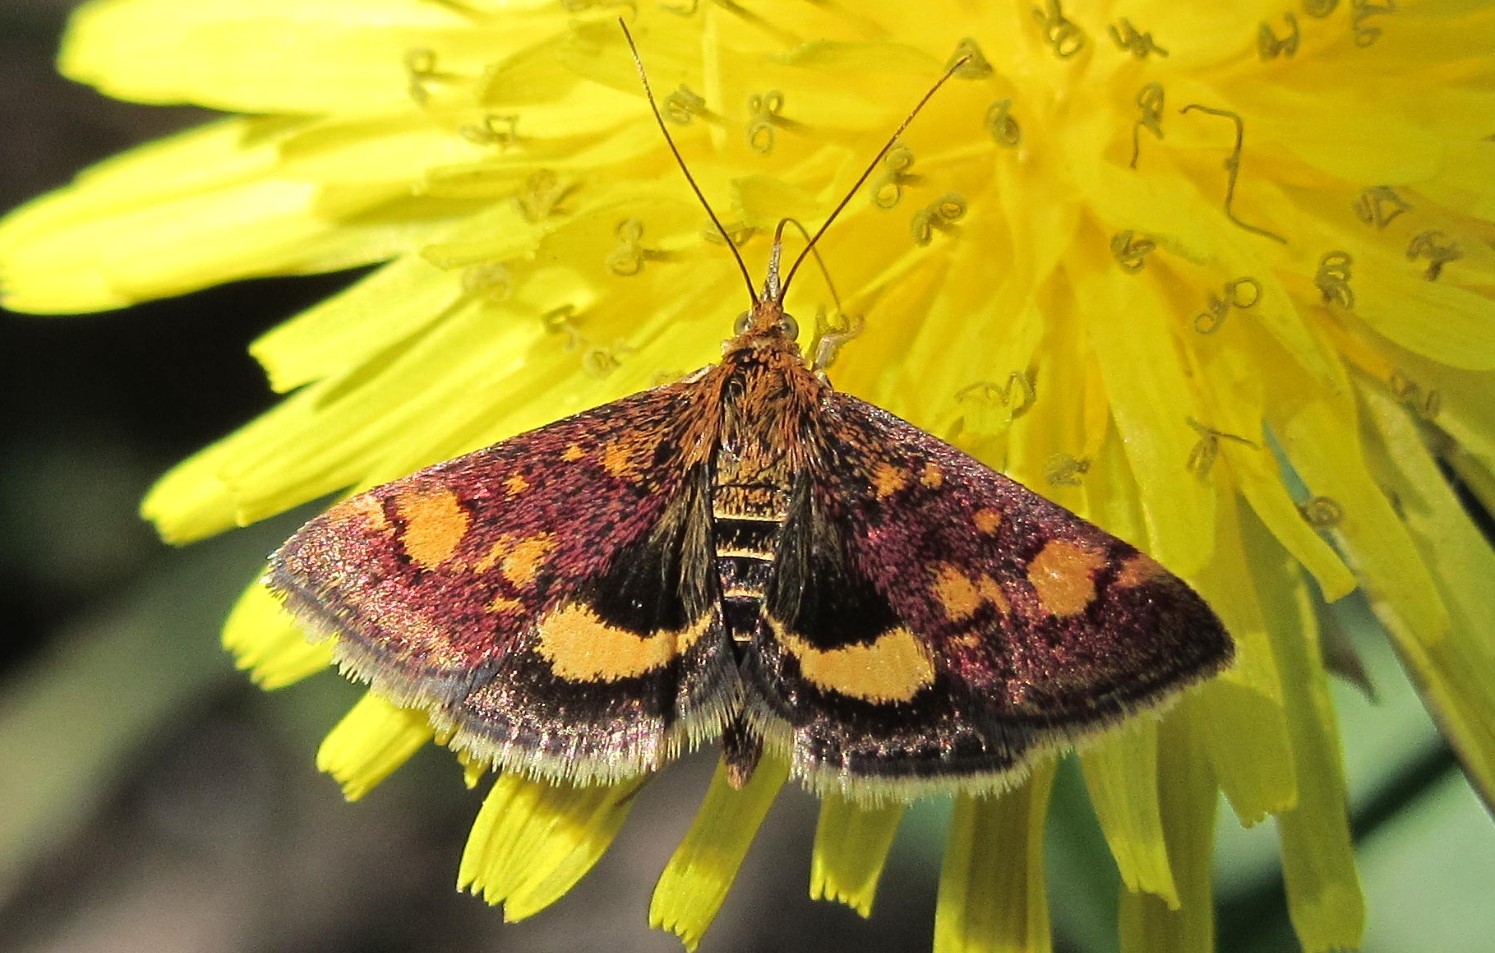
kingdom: Animalia
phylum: Arthropoda
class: Insecta
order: Lepidoptera
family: Crambidae
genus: Pyrausta
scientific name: Pyrausta aurata
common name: Small purple & gold
